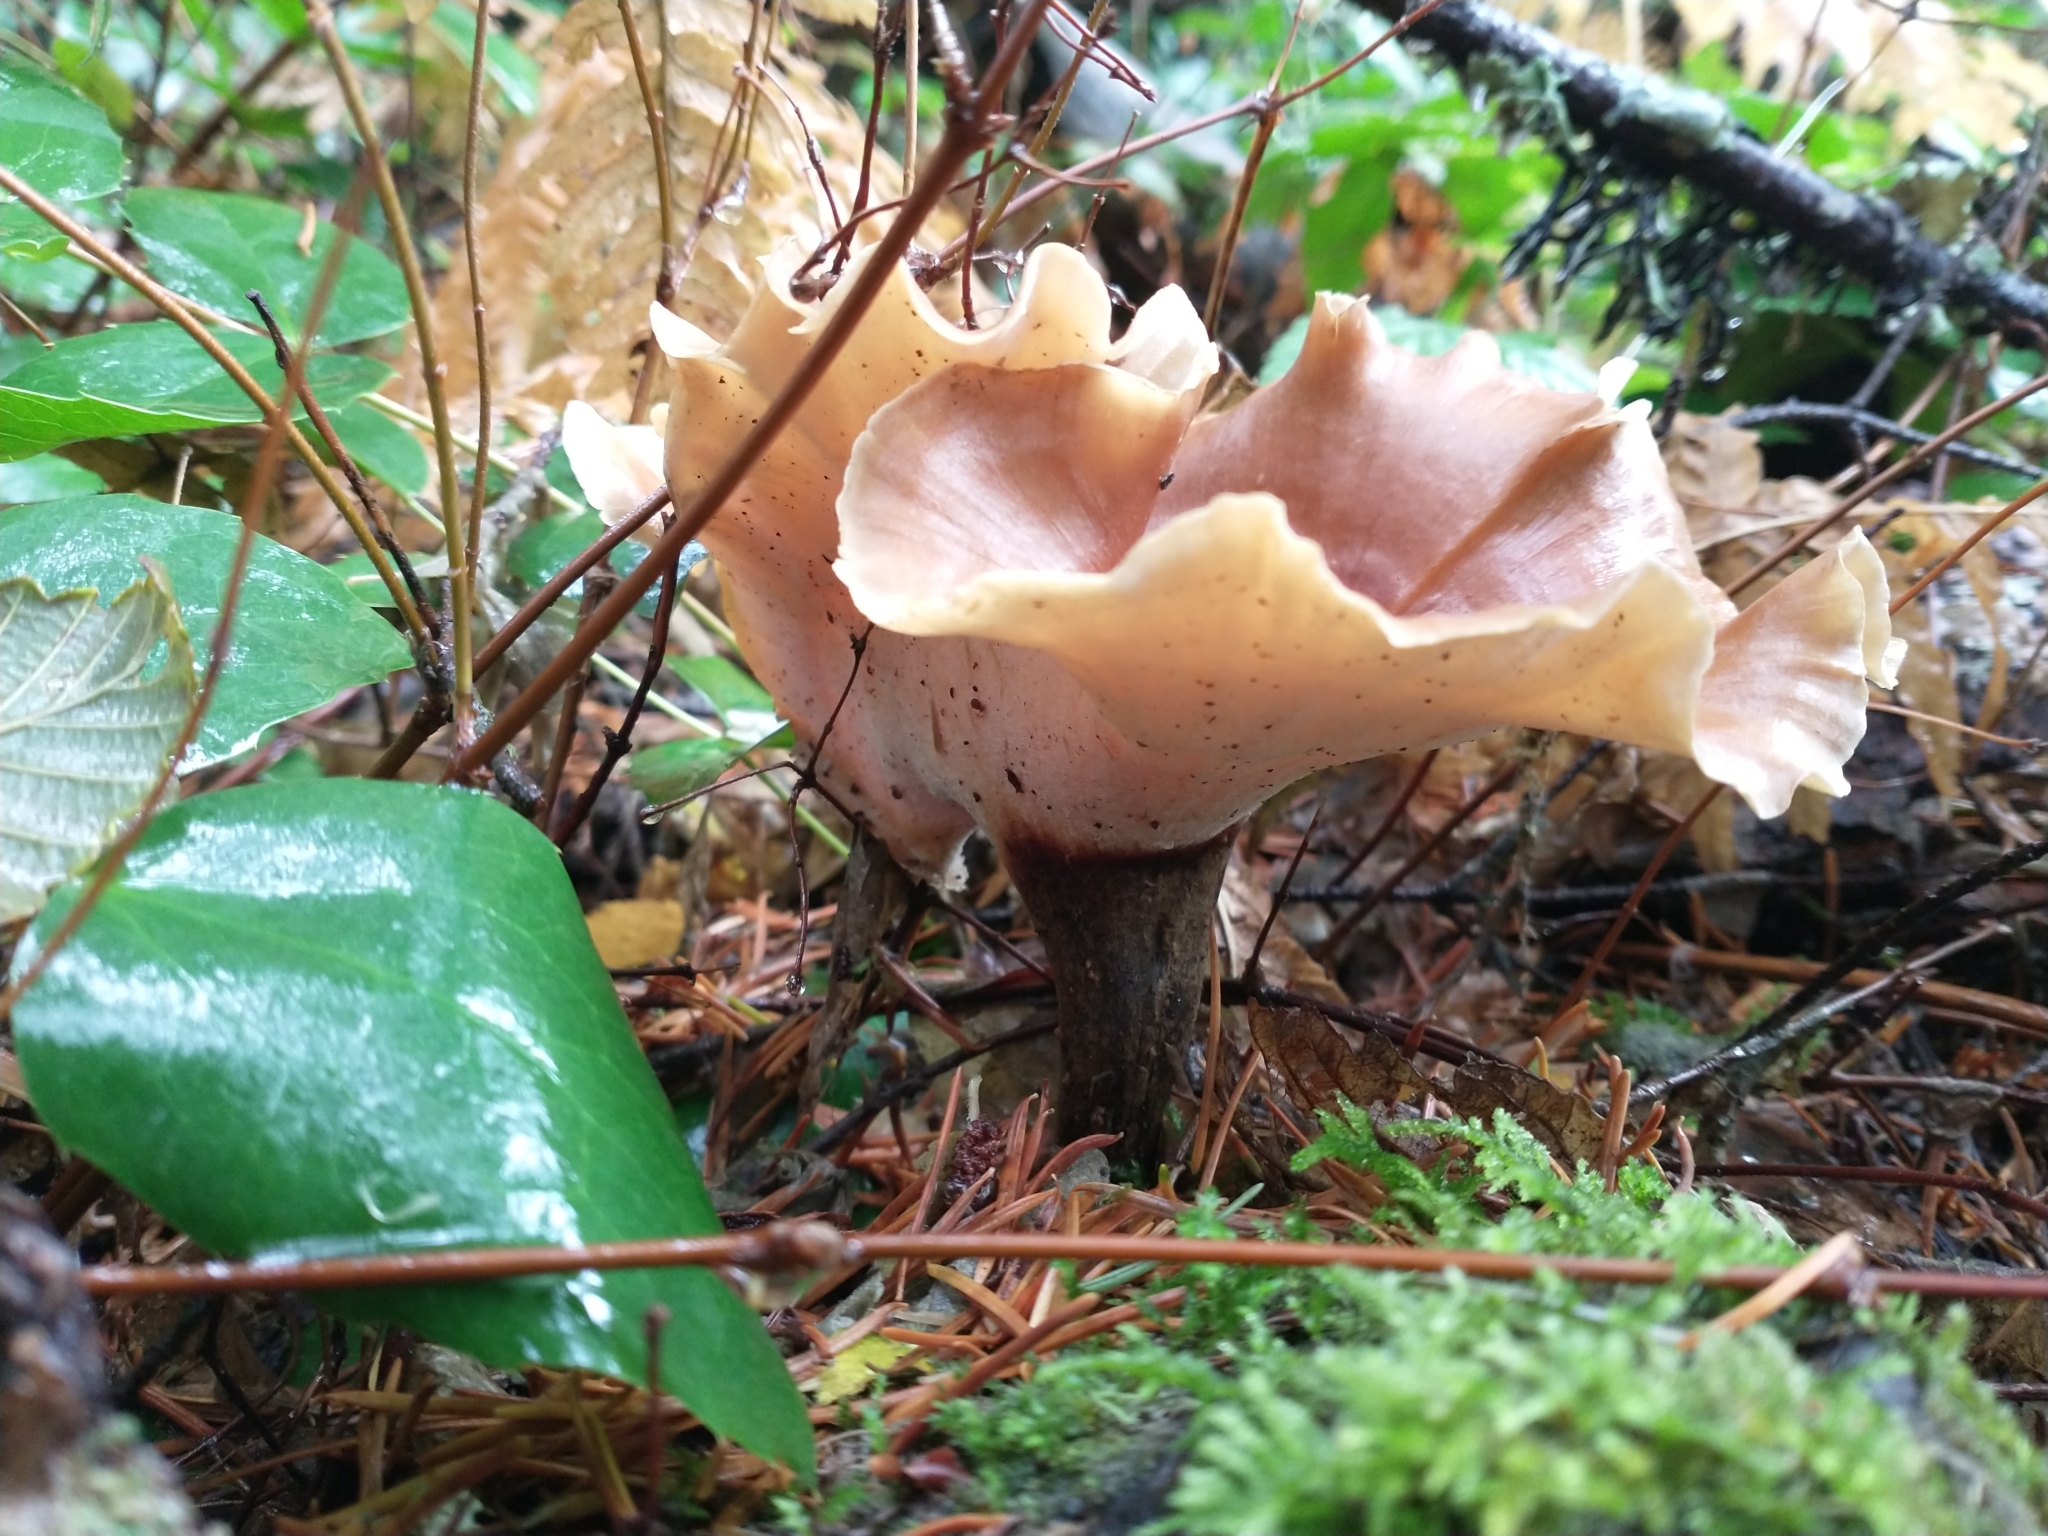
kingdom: Fungi
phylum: Basidiomycota
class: Agaricomycetes
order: Polyporales
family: Polyporaceae
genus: Picipes
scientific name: Picipes melanopus
